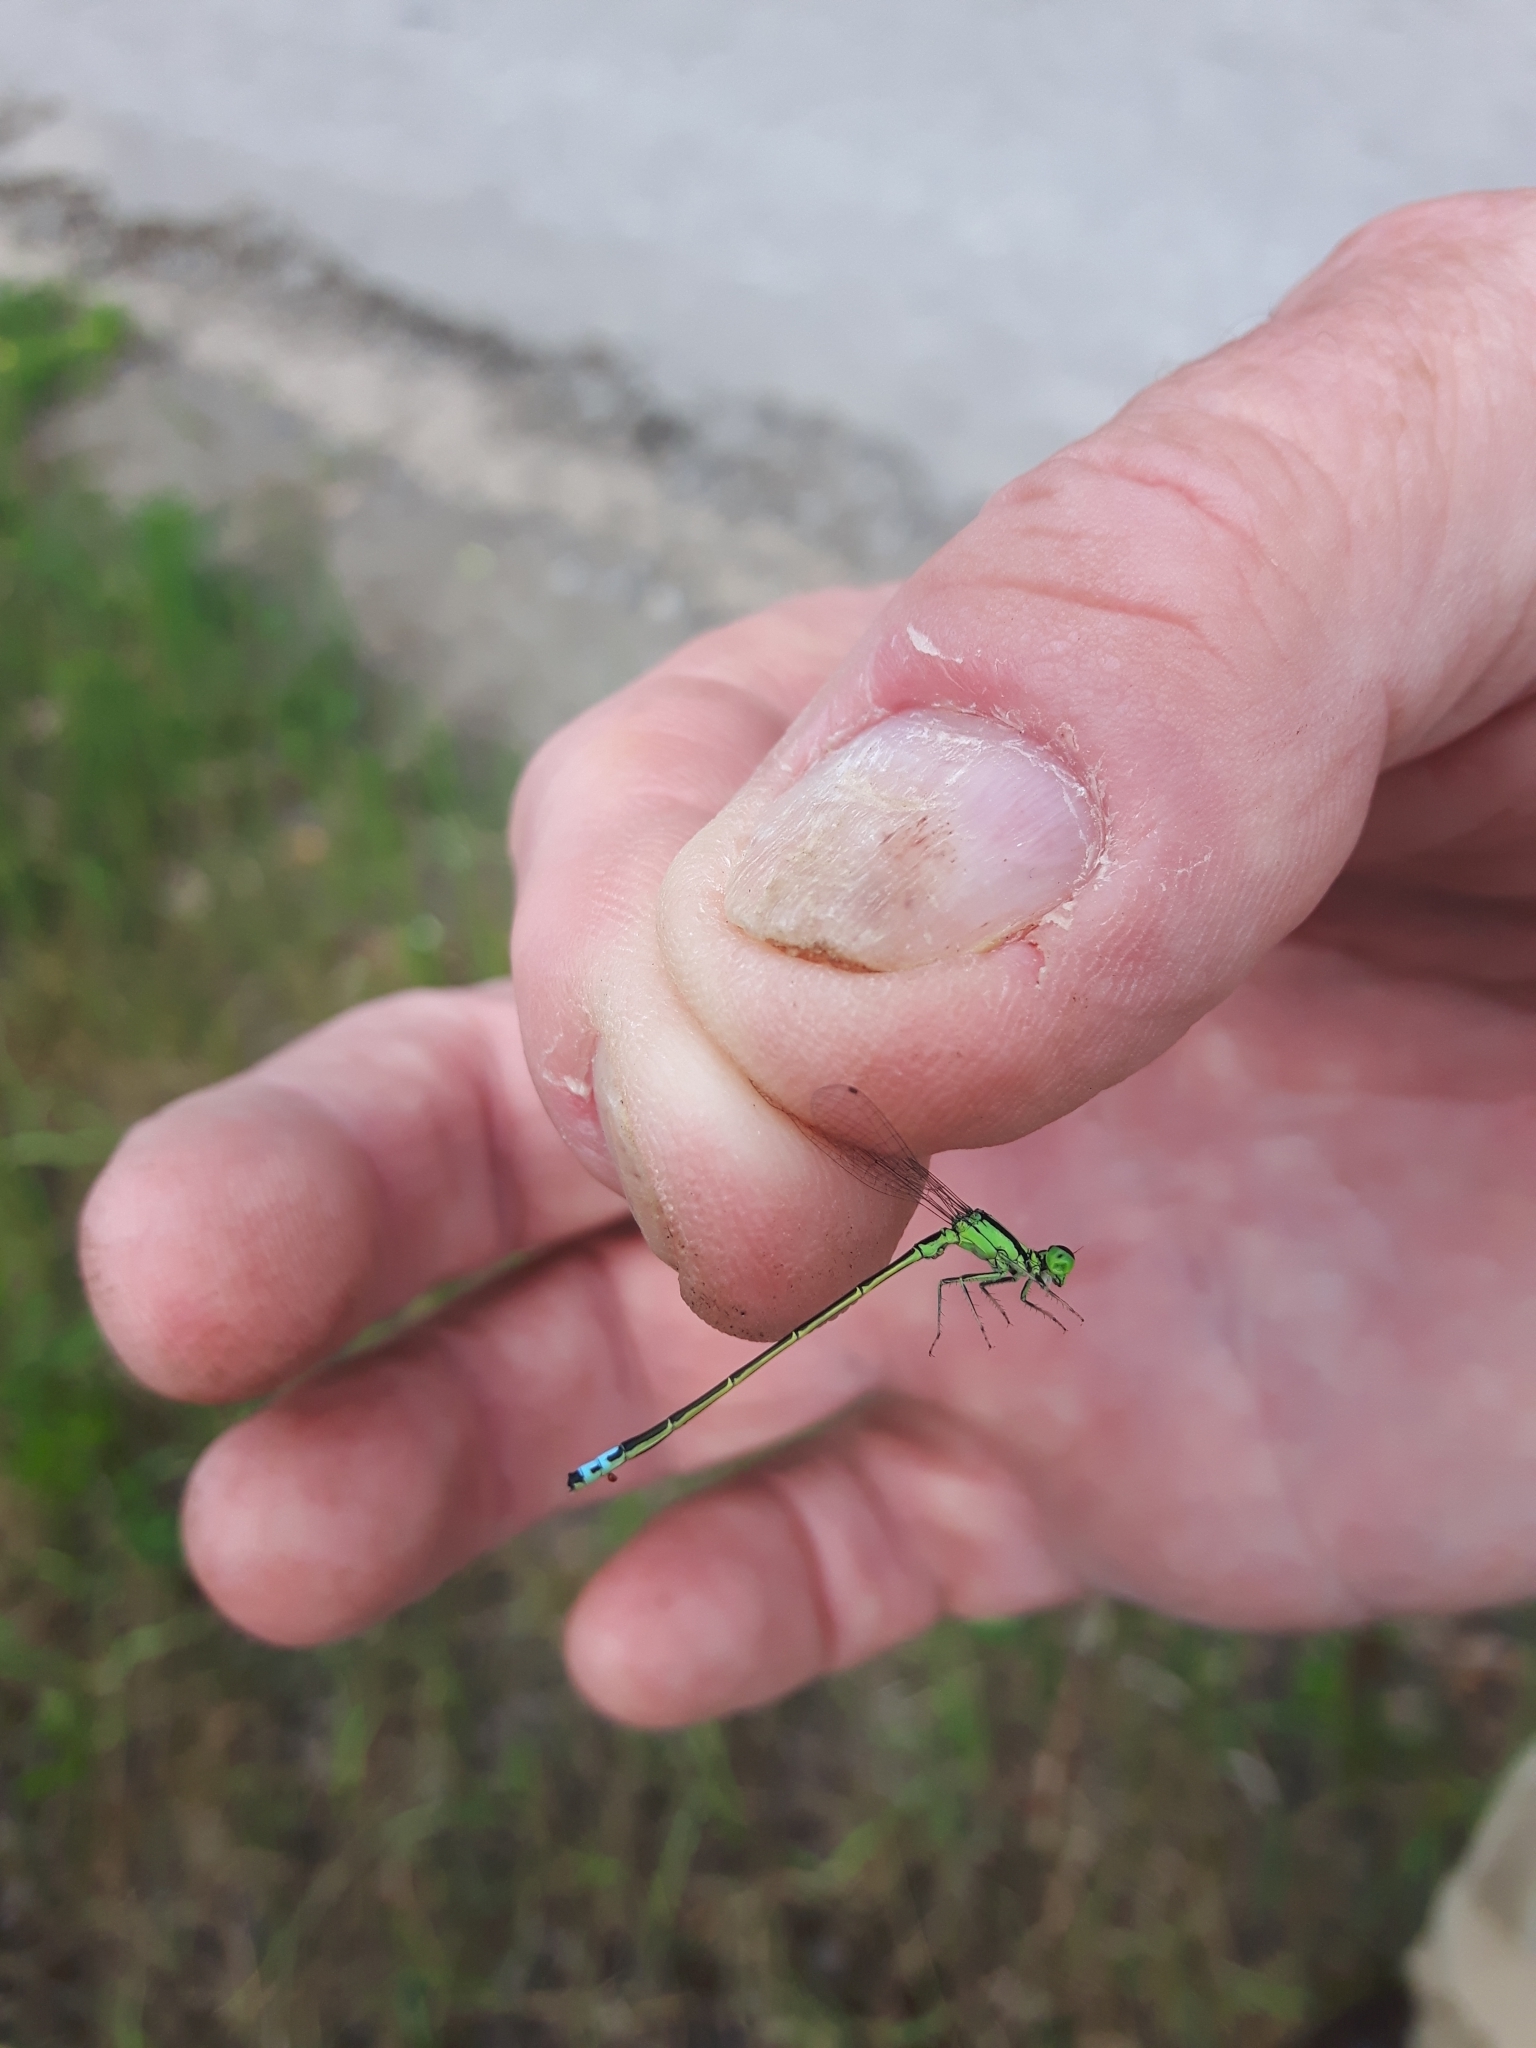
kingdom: Animalia
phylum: Arthropoda
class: Insecta
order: Odonata
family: Coenagrionidae
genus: Ischnura
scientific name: Ischnura verticalis
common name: Eastern forktail
